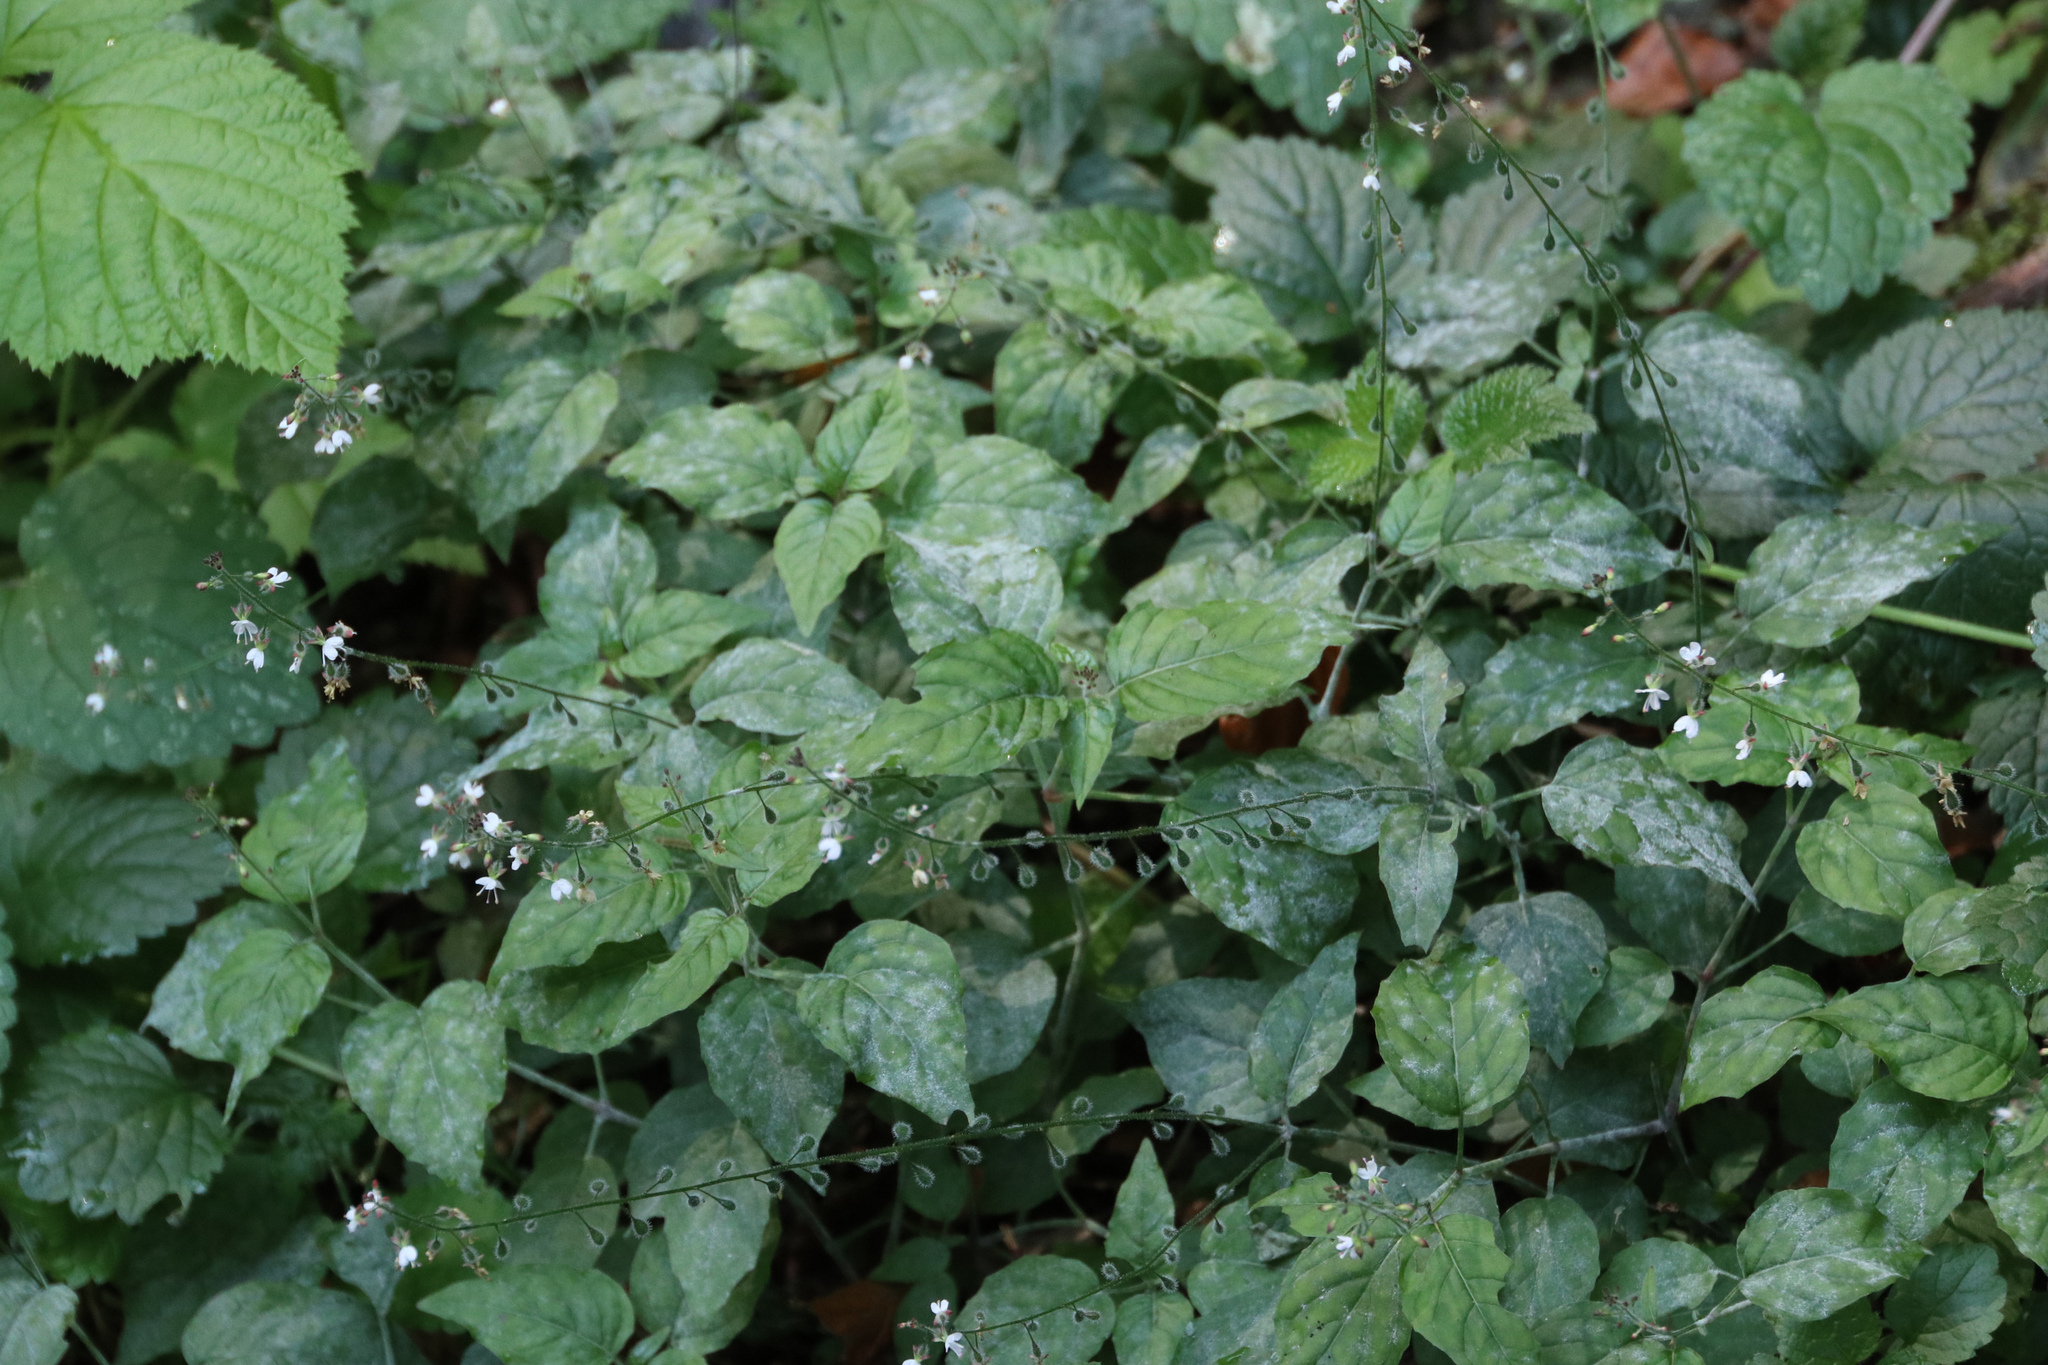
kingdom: Plantae
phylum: Tracheophyta
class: Magnoliopsida
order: Myrtales
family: Onagraceae
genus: Circaea
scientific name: Circaea lutetiana
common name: Enchanter's-nightshade
